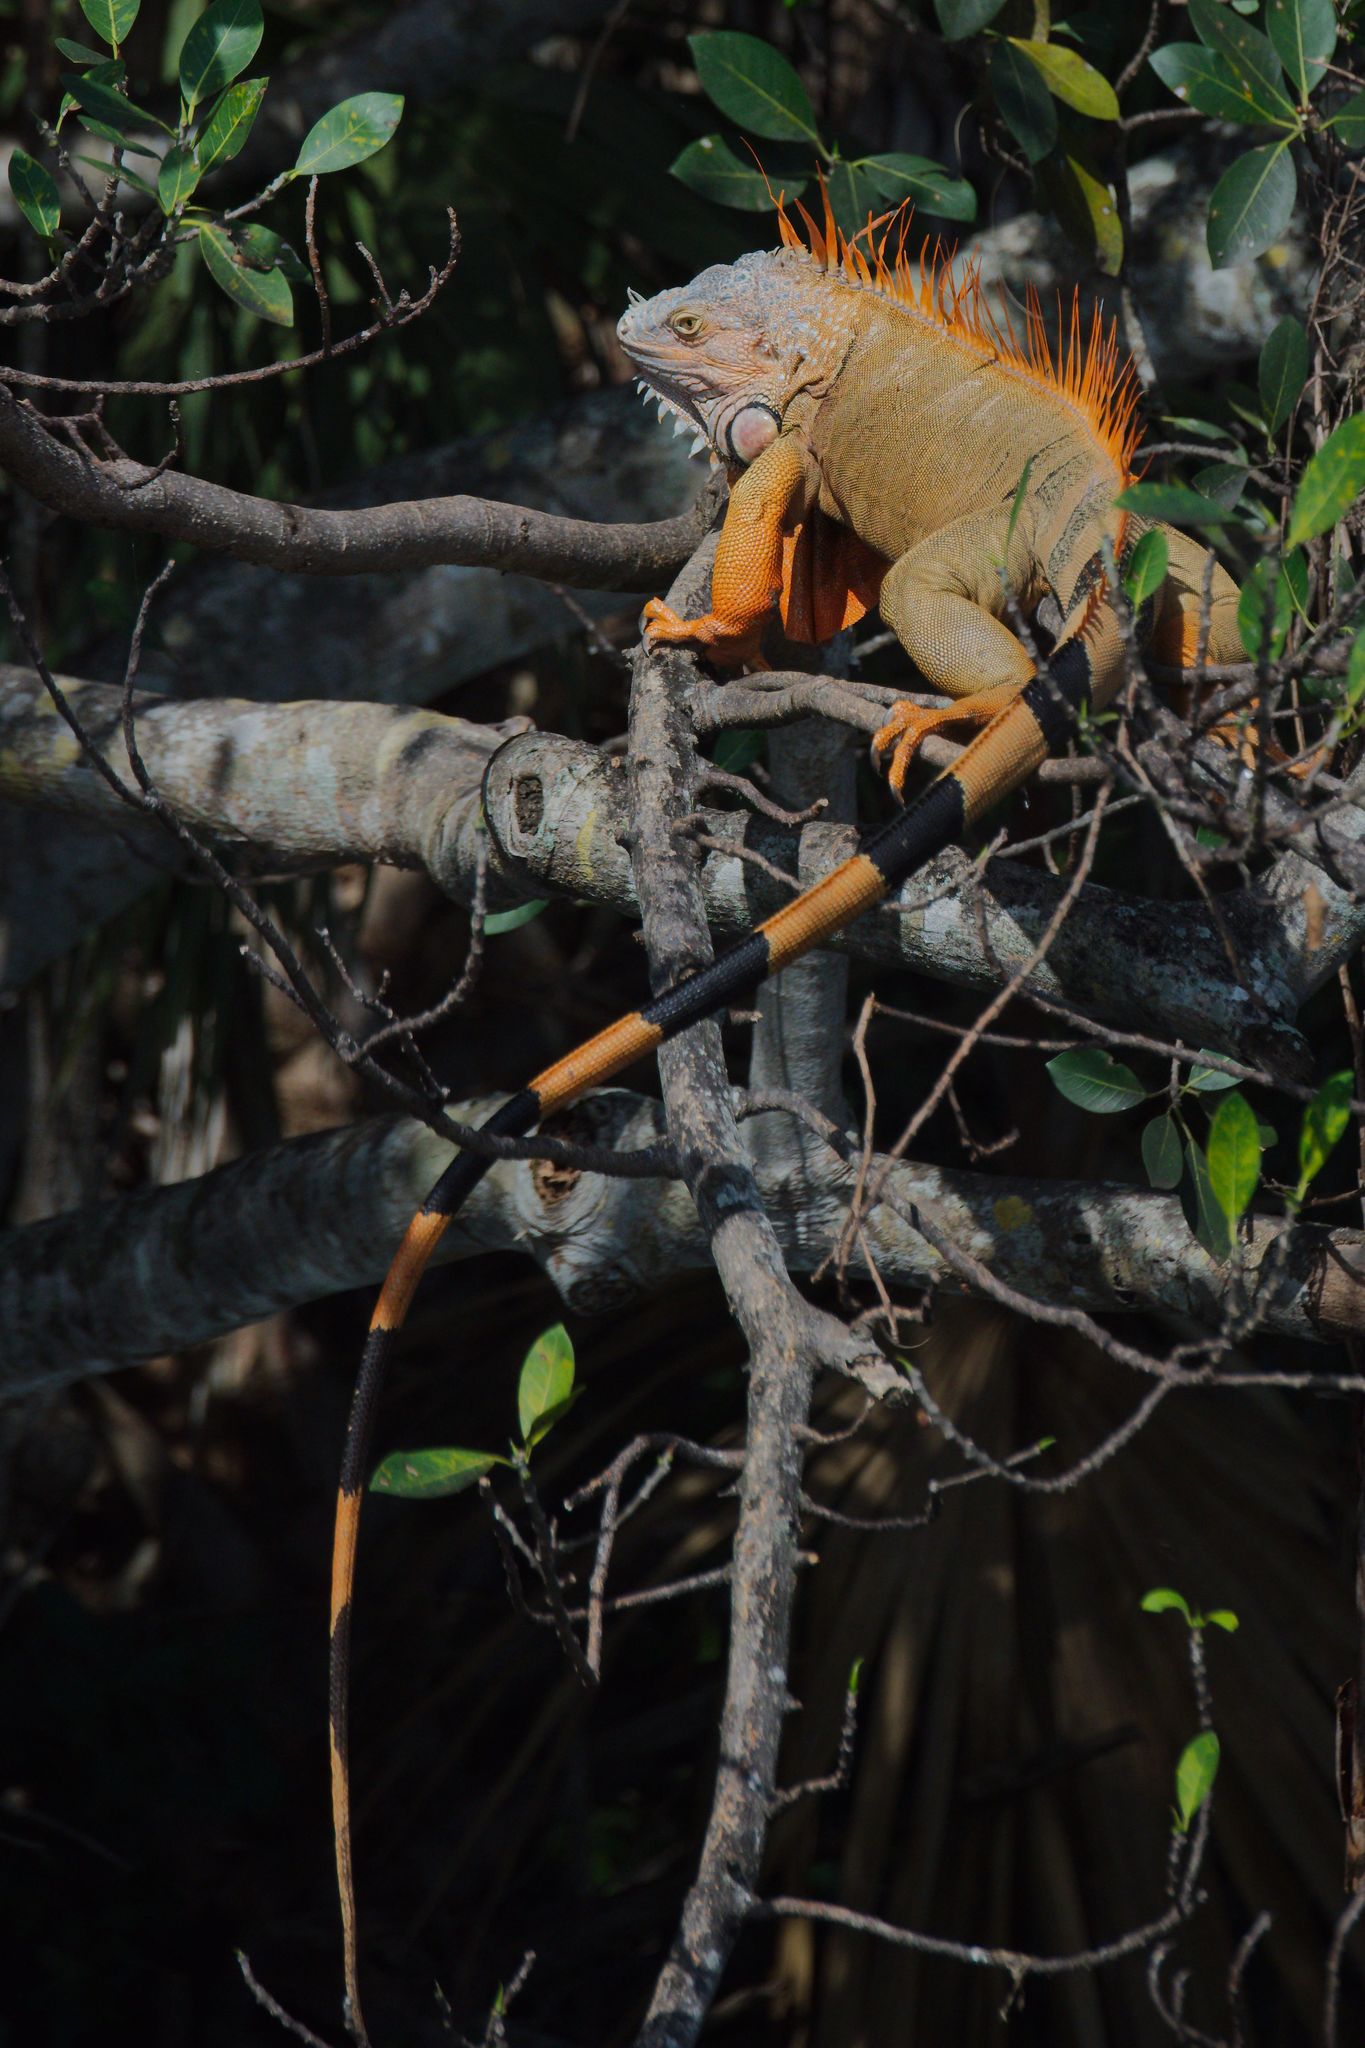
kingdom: Animalia
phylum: Chordata
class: Squamata
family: Iguanidae
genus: Iguana
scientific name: Iguana iguana
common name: Green iguana
